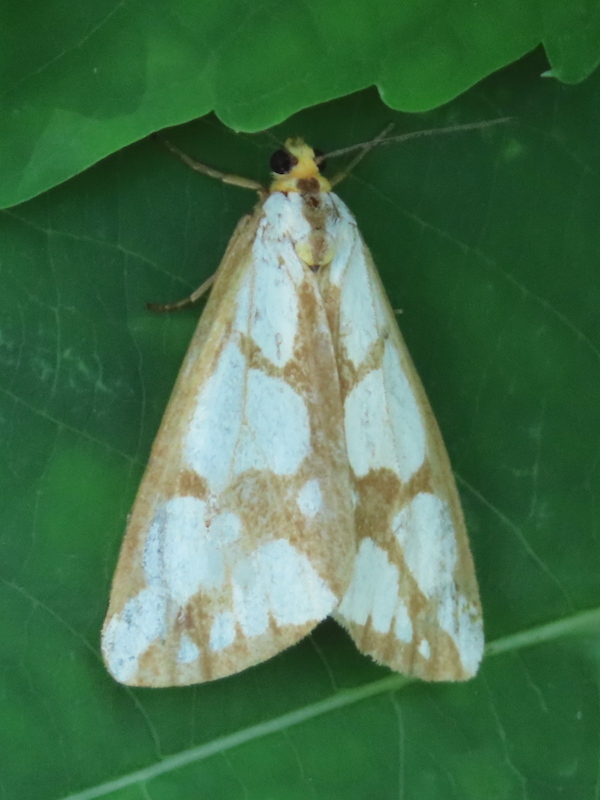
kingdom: Animalia
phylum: Arthropoda
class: Insecta
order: Lepidoptera
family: Erebidae
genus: Haploa
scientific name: Haploa confusa
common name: Confused haploa moth
